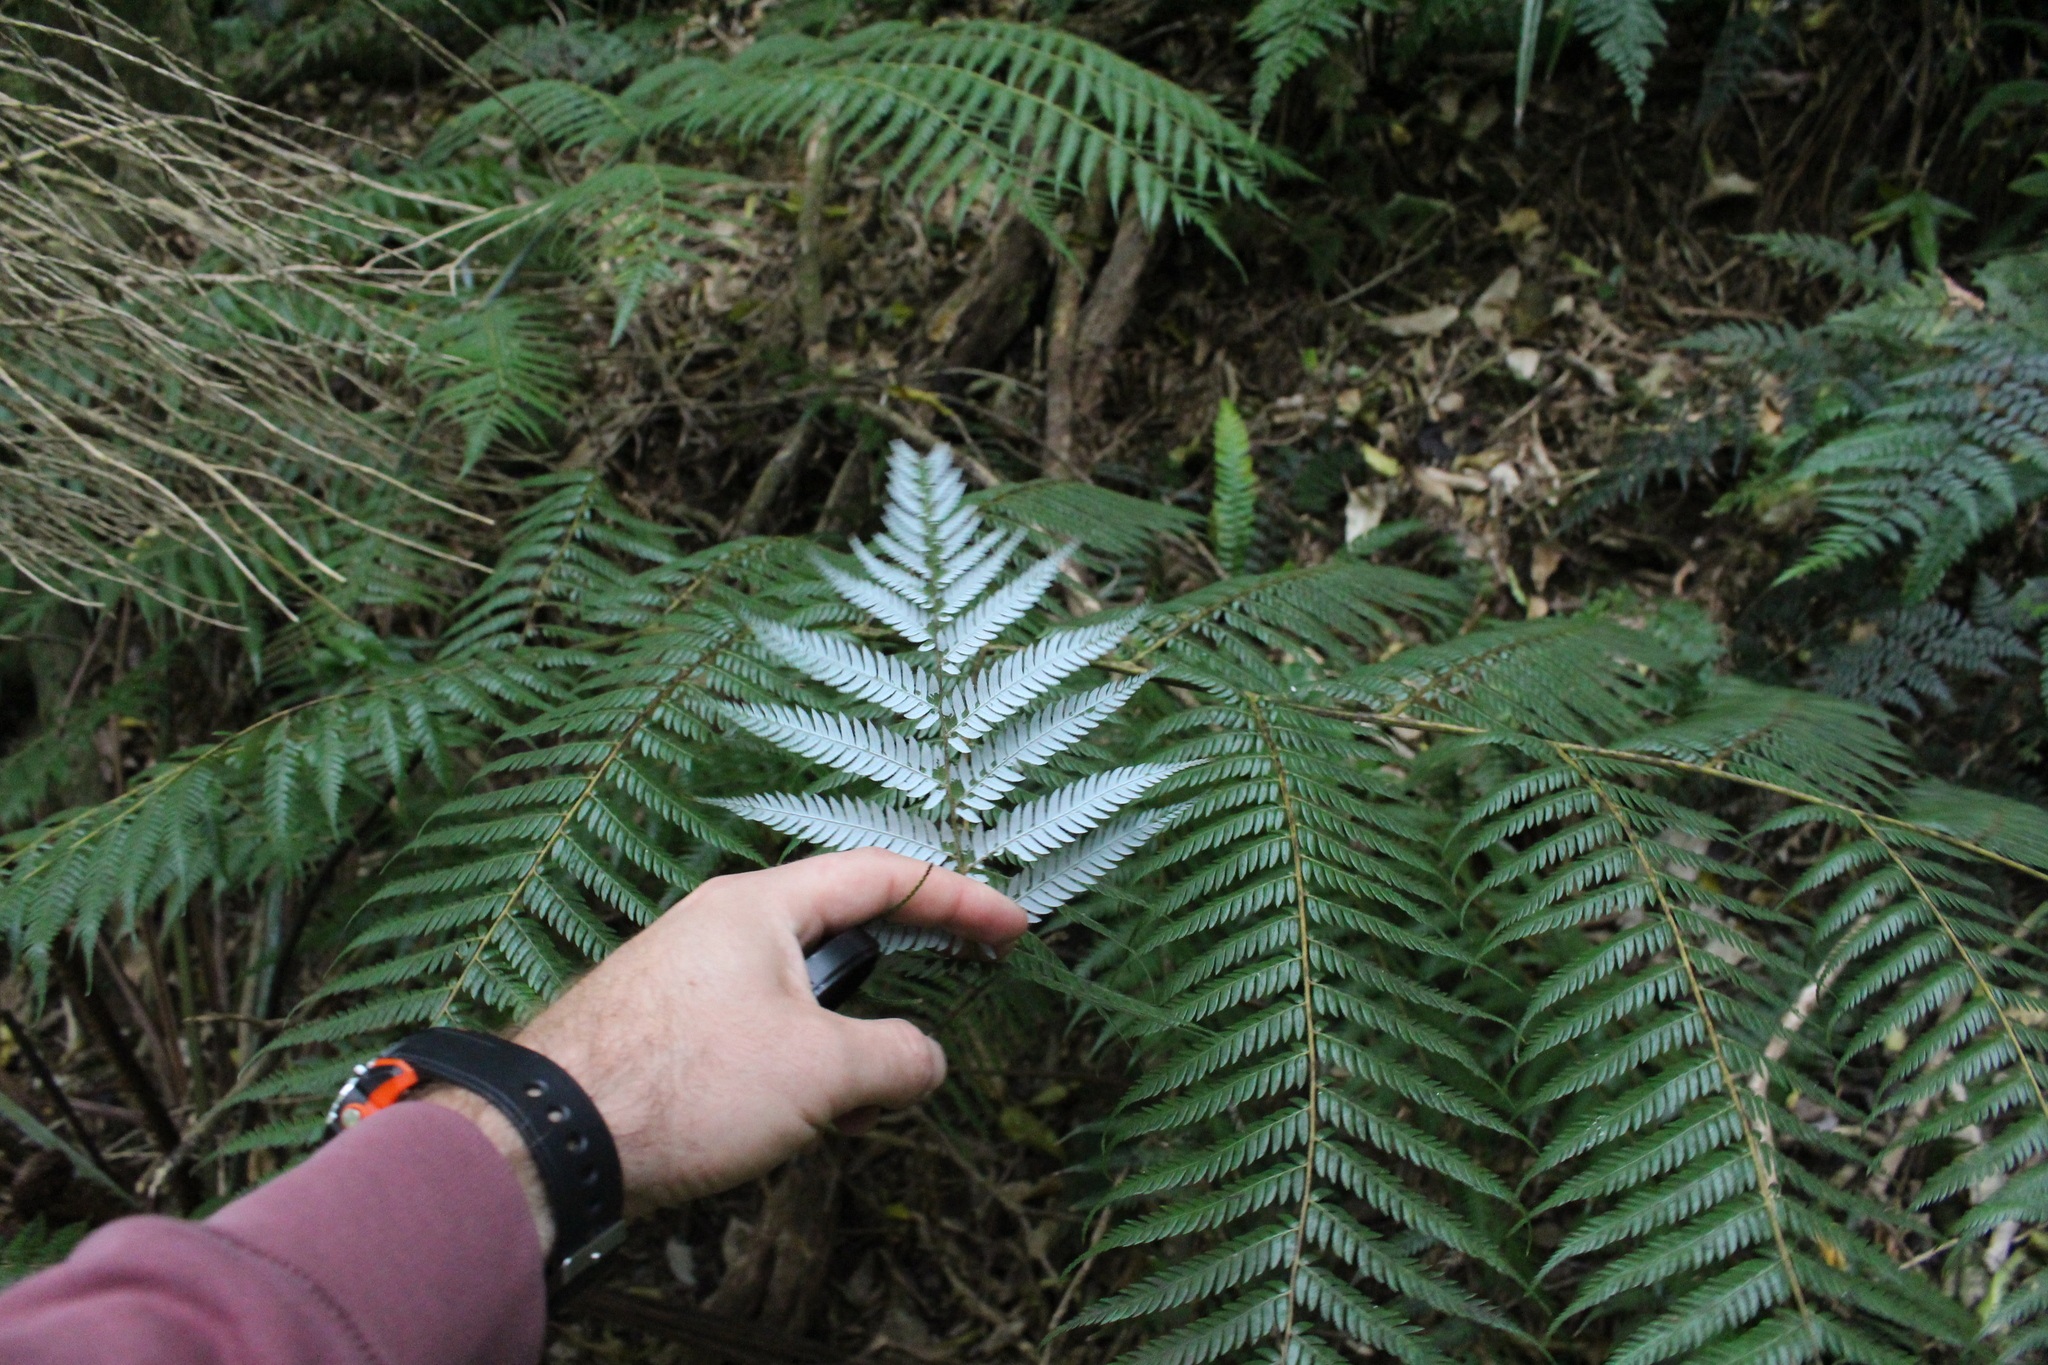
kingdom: Plantae
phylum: Tracheophyta
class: Polypodiopsida
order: Cyatheales
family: Cyatheaceae
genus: Alsophila
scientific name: Alsophila dealbata
